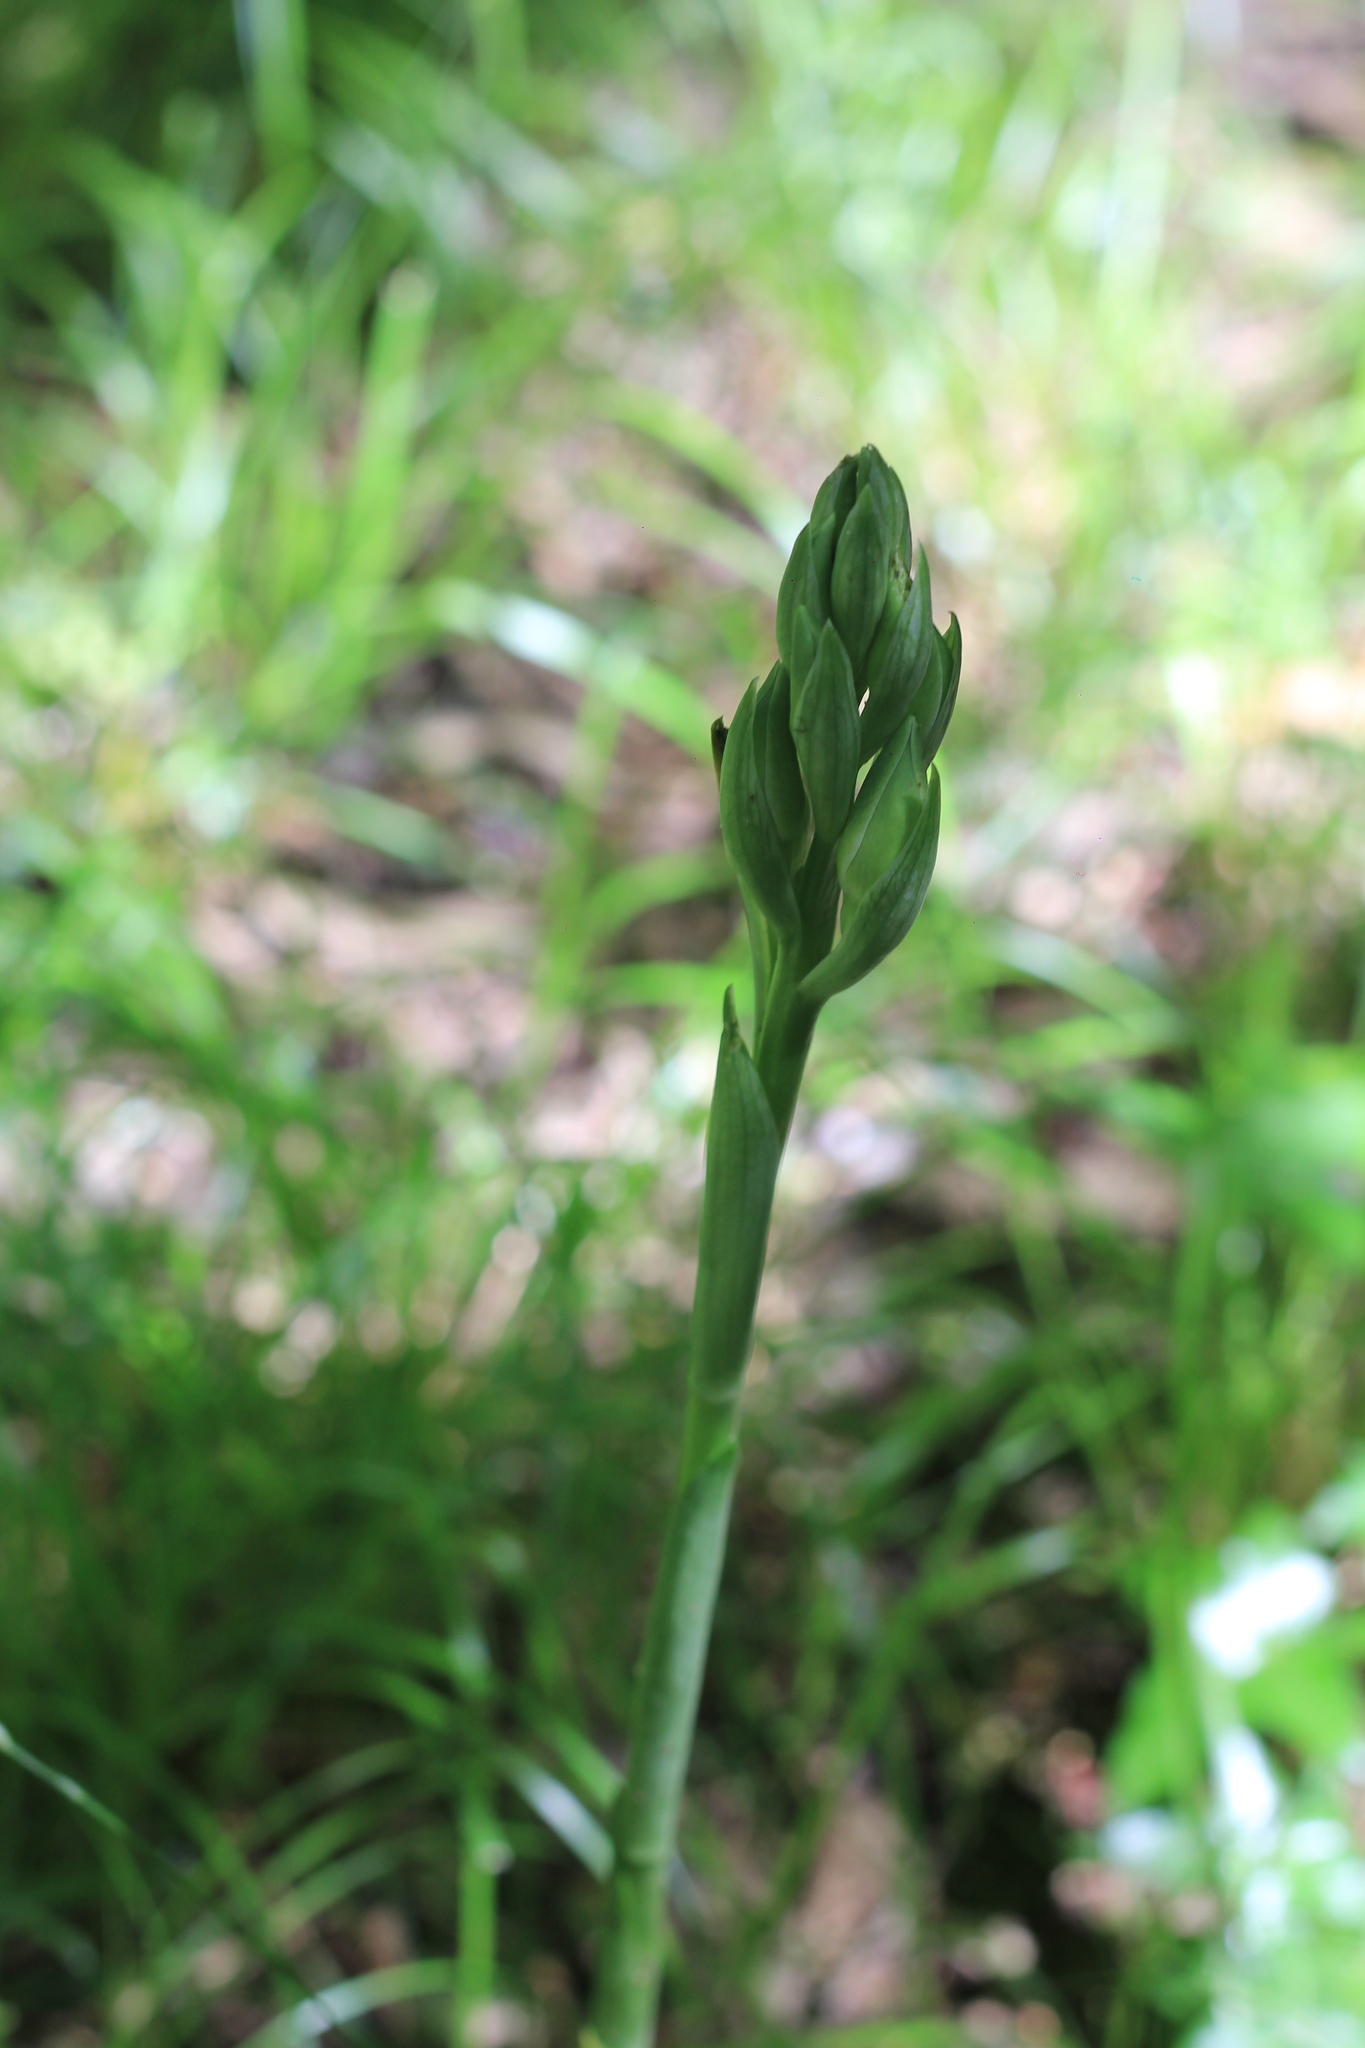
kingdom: Plantae
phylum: Tracheophyta
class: Liliopsida
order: Asparagales
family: Orchidaceae
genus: Chloraea
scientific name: Chloraea membranacea
